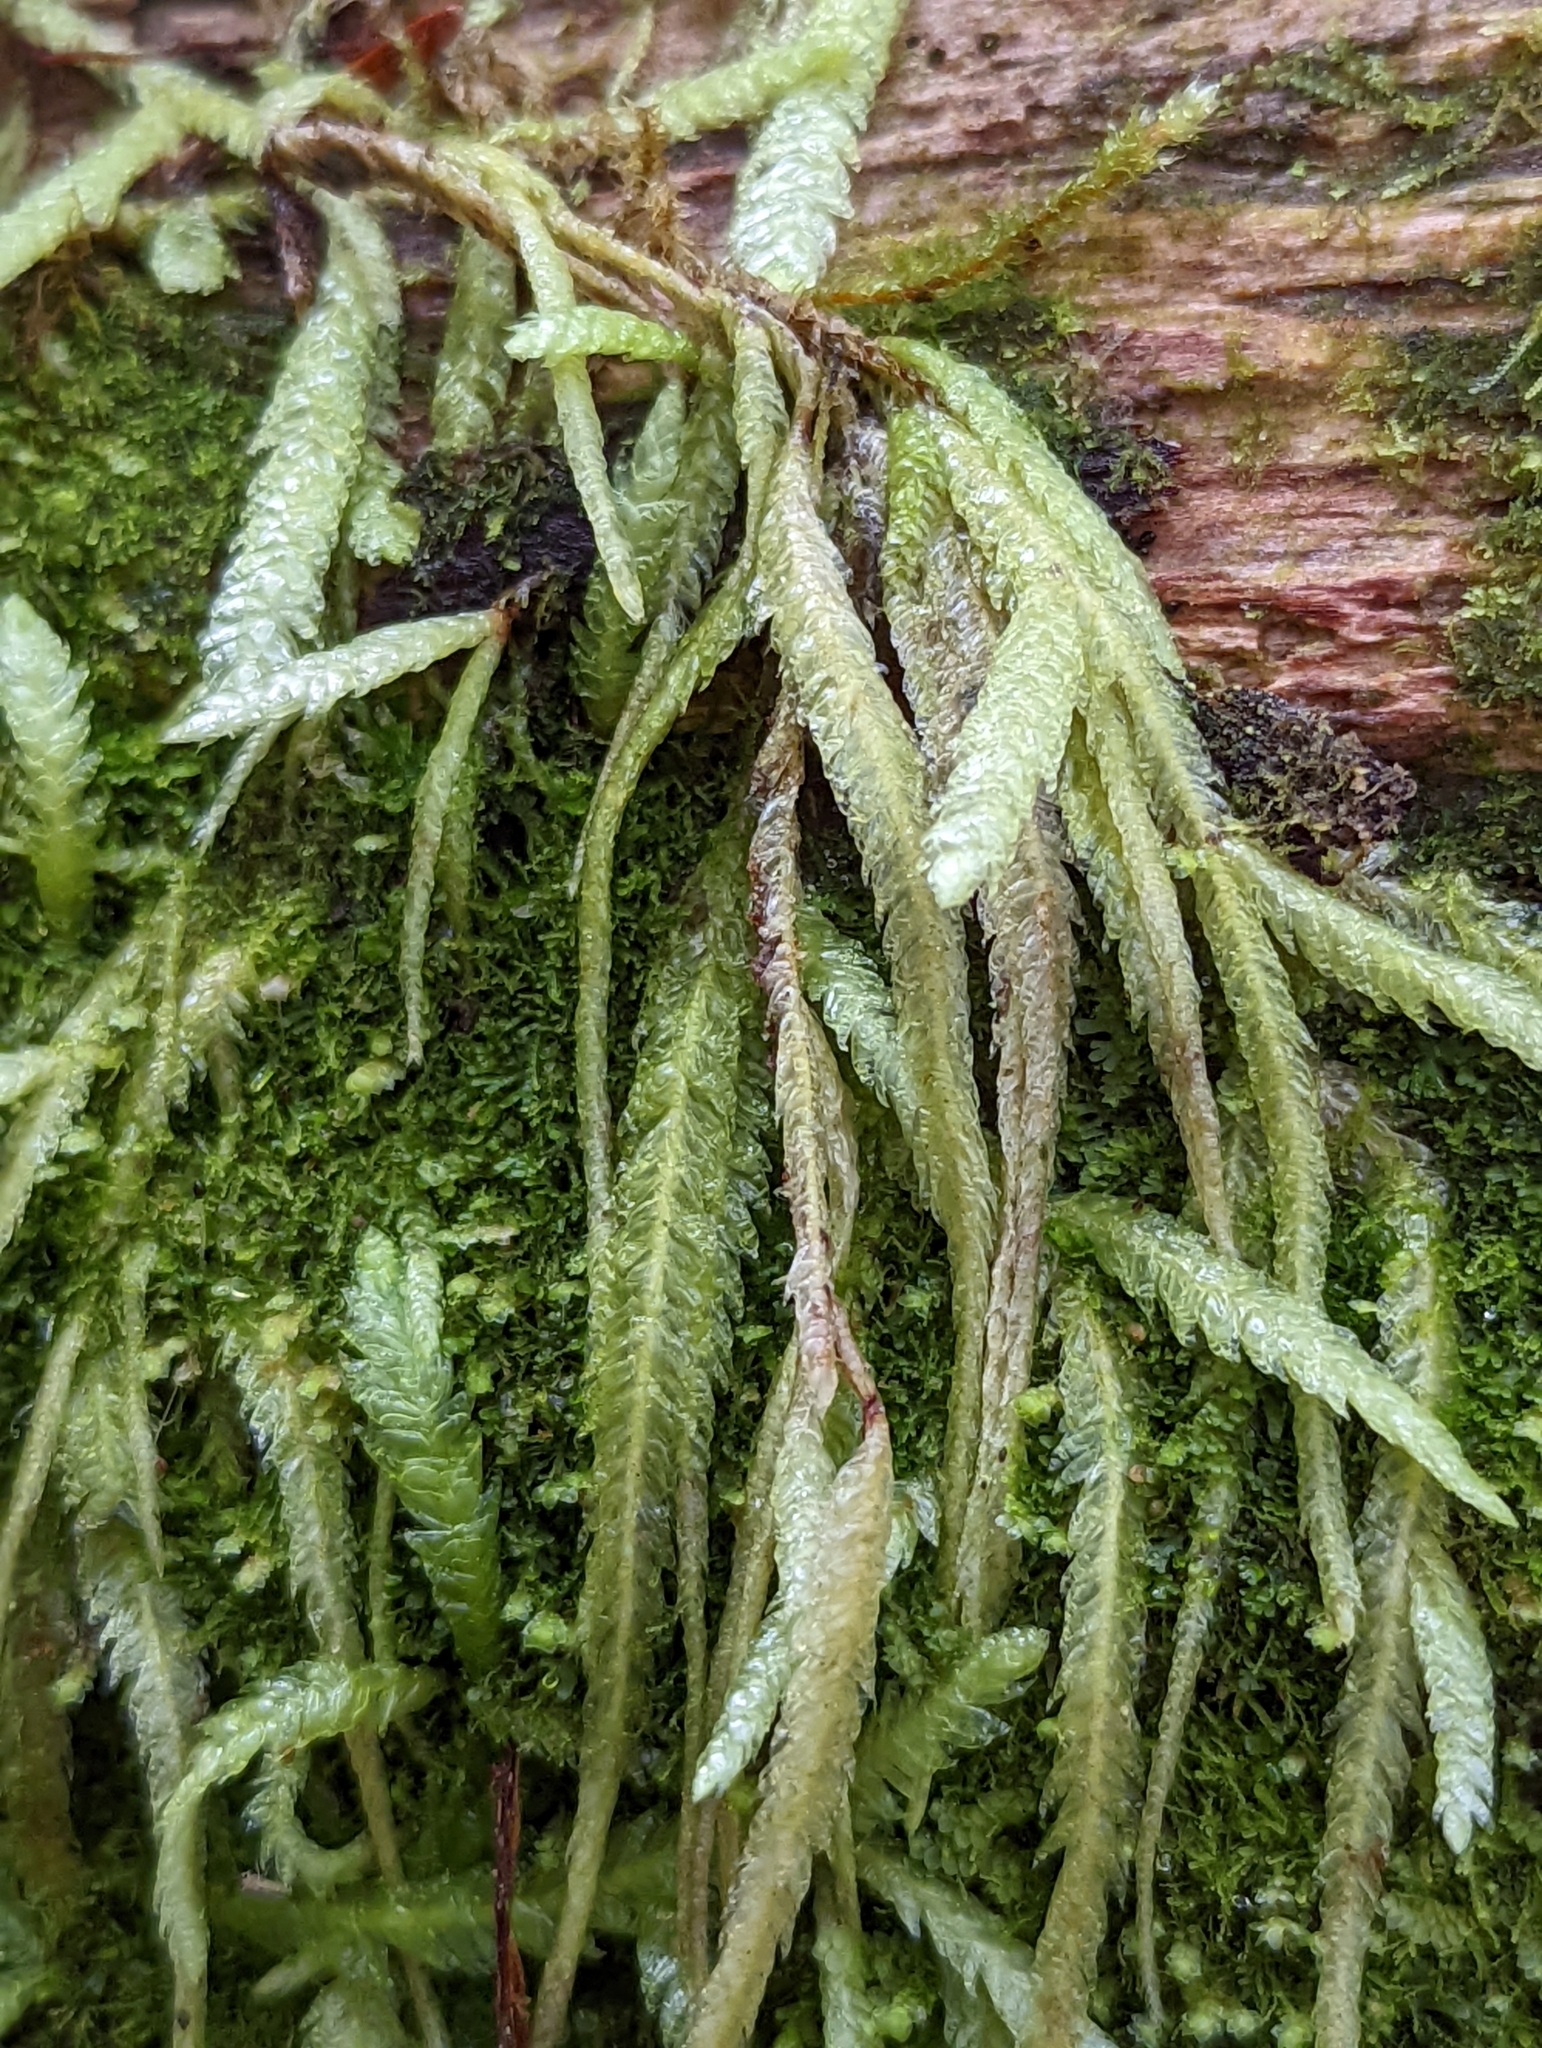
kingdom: Plantae
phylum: Bryophyta
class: Bryopsida
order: Hypnales
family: Plagiotheciaceae
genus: Plagiothecium
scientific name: Plagiothecium undulatum
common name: Waved silk-moss
